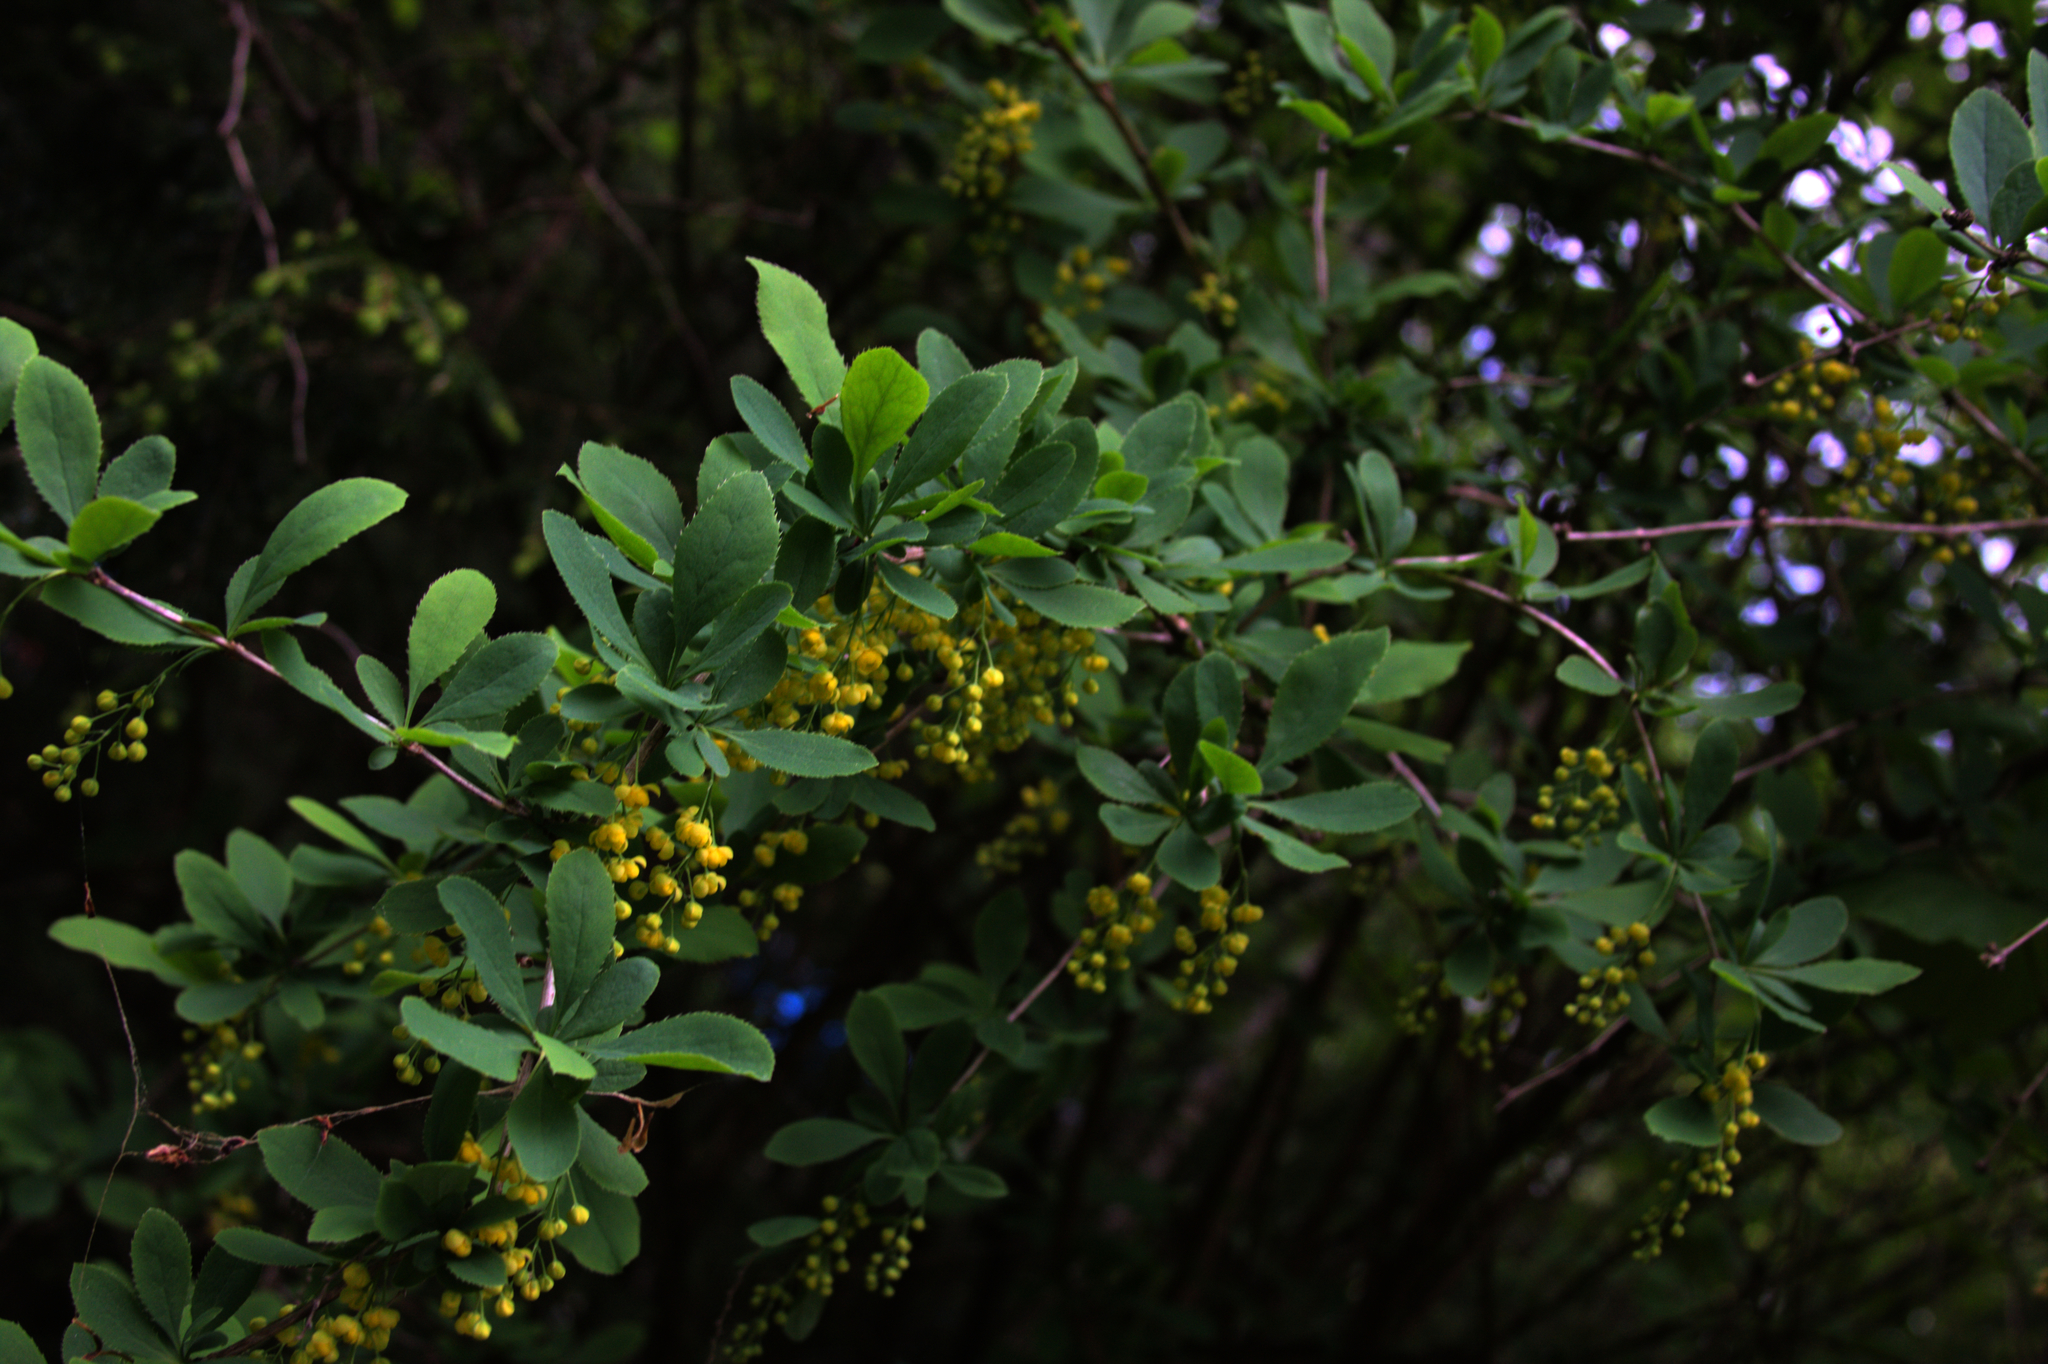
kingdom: Plantae
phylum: Tracheophyta
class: Magnoliopsida
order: Ranunculales
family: Berberidaceae
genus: Berberis
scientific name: Berberis vulgaris
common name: Barberry
